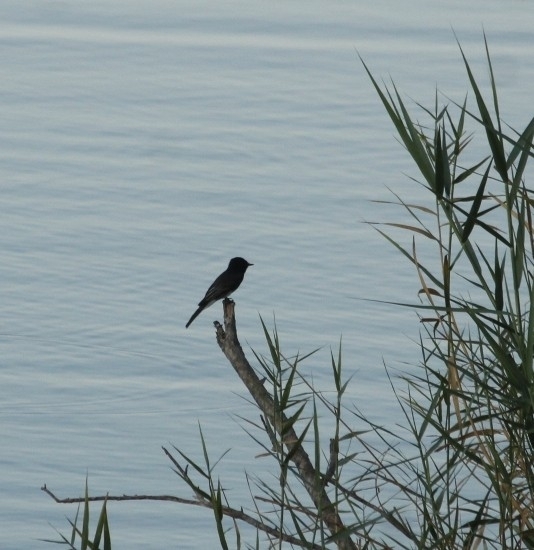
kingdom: Animalia
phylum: Chordata
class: Aves
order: Passeriformes
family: Tyrannidae
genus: Sayornis
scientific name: Sayornis nigricans
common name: Black phoebe
